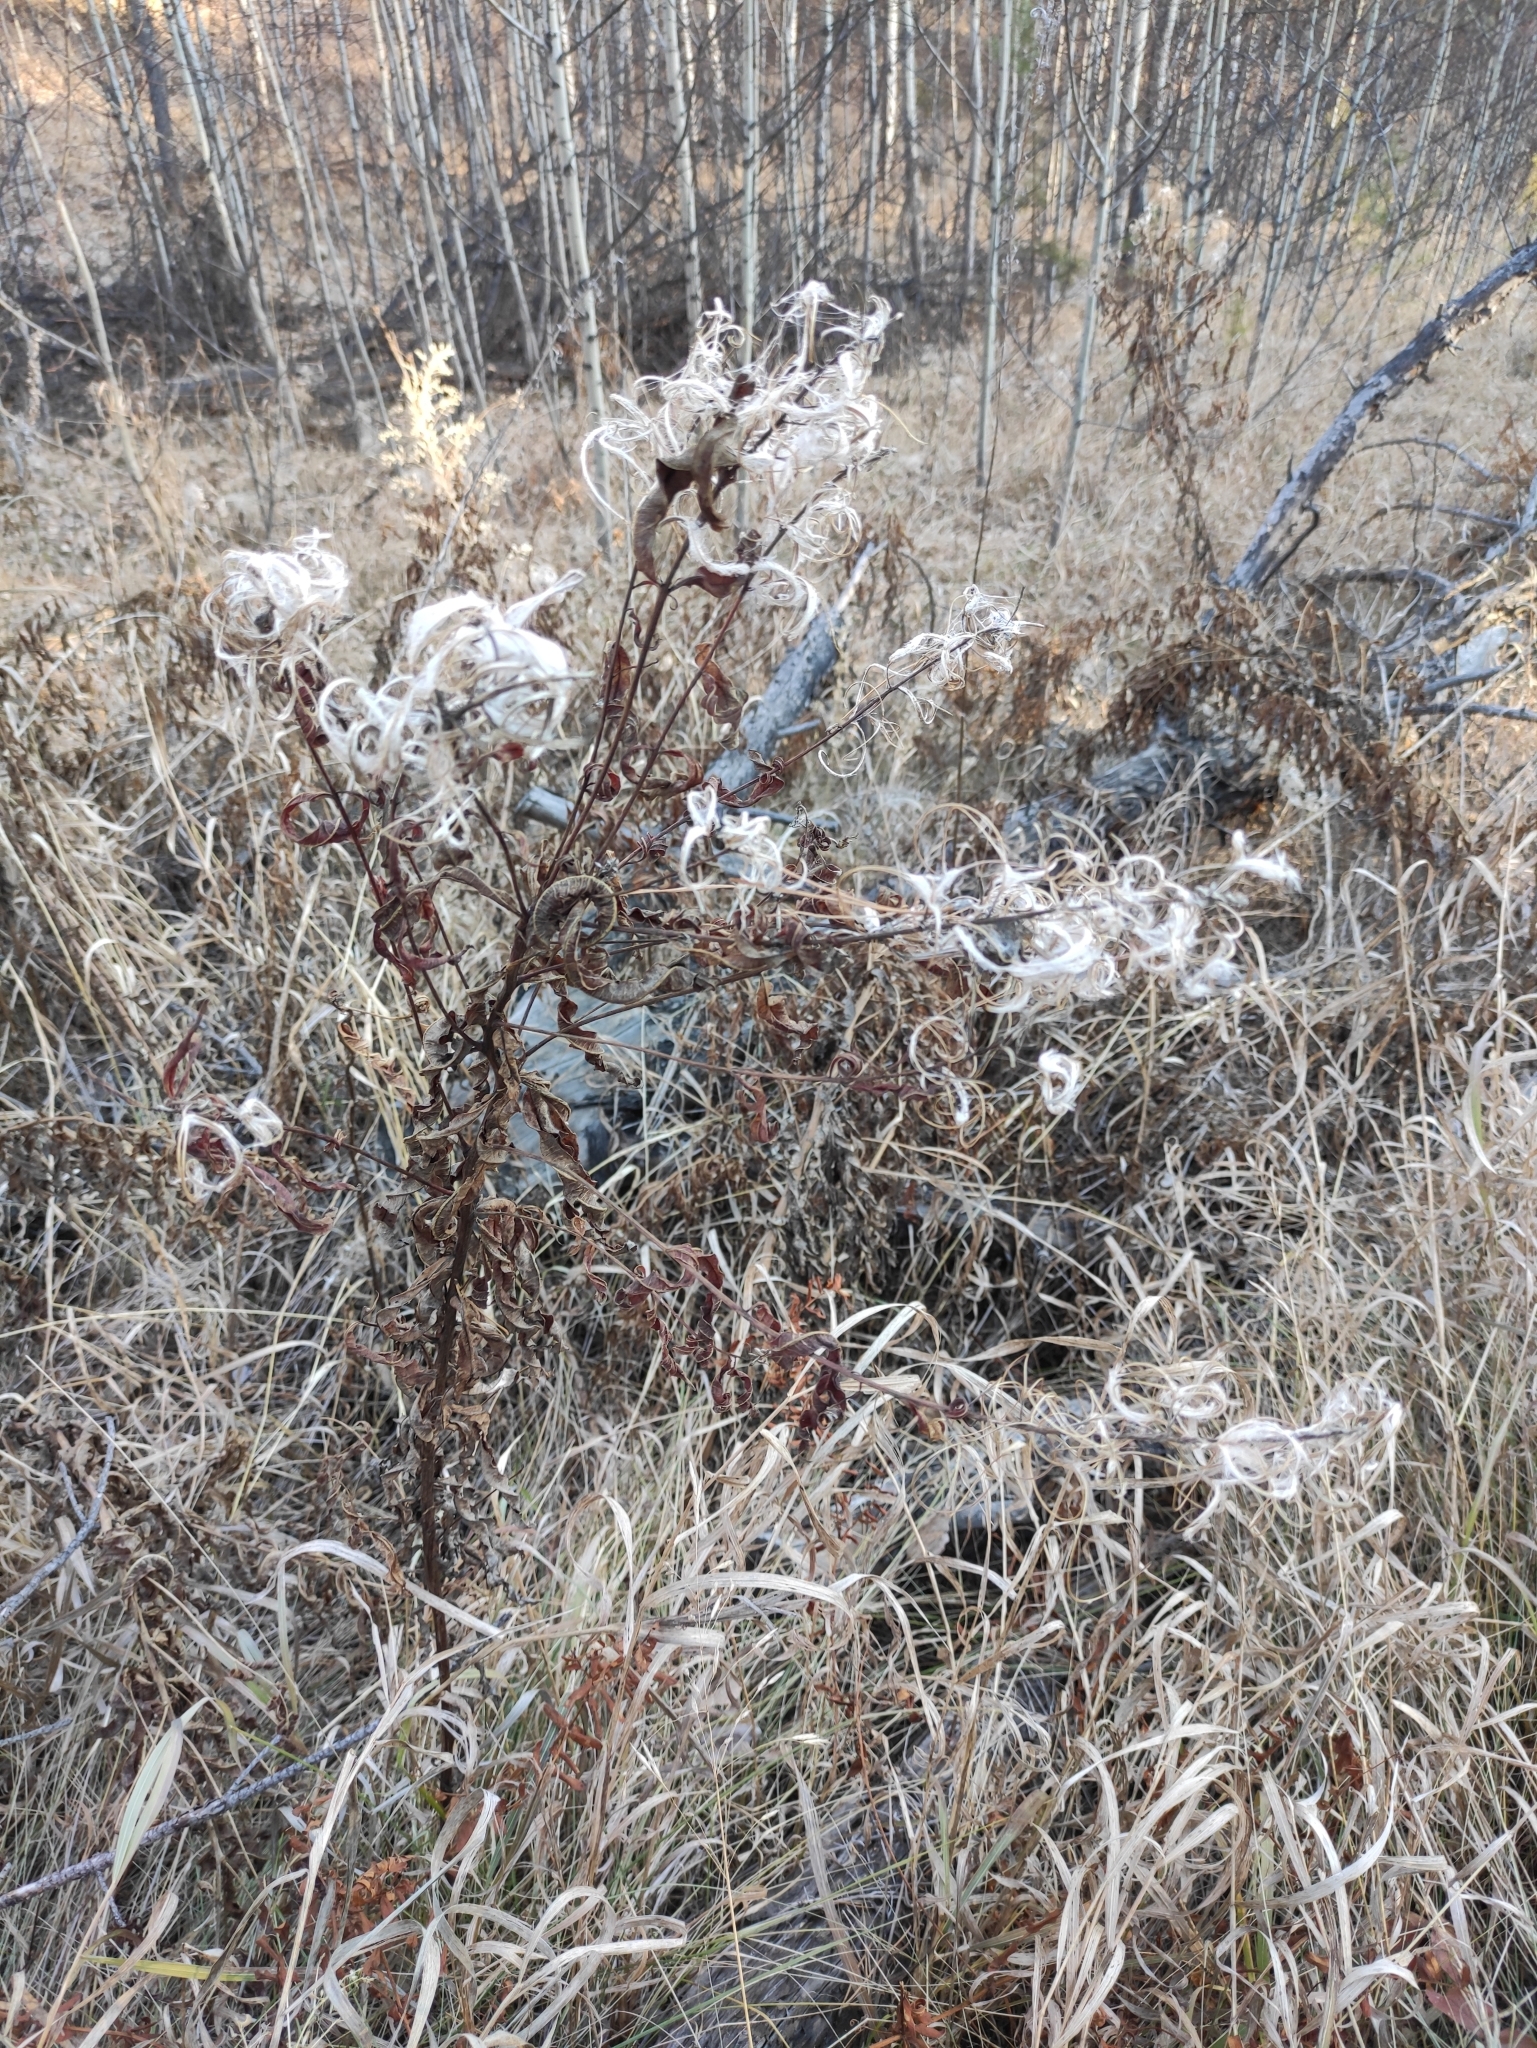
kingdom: Plantae
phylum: Tracheophyta
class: Magnoliopsida
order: Myrtales
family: Onagraceae
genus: Chamaenerion
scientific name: Chamaenerion angustifolium
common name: Fireweed
